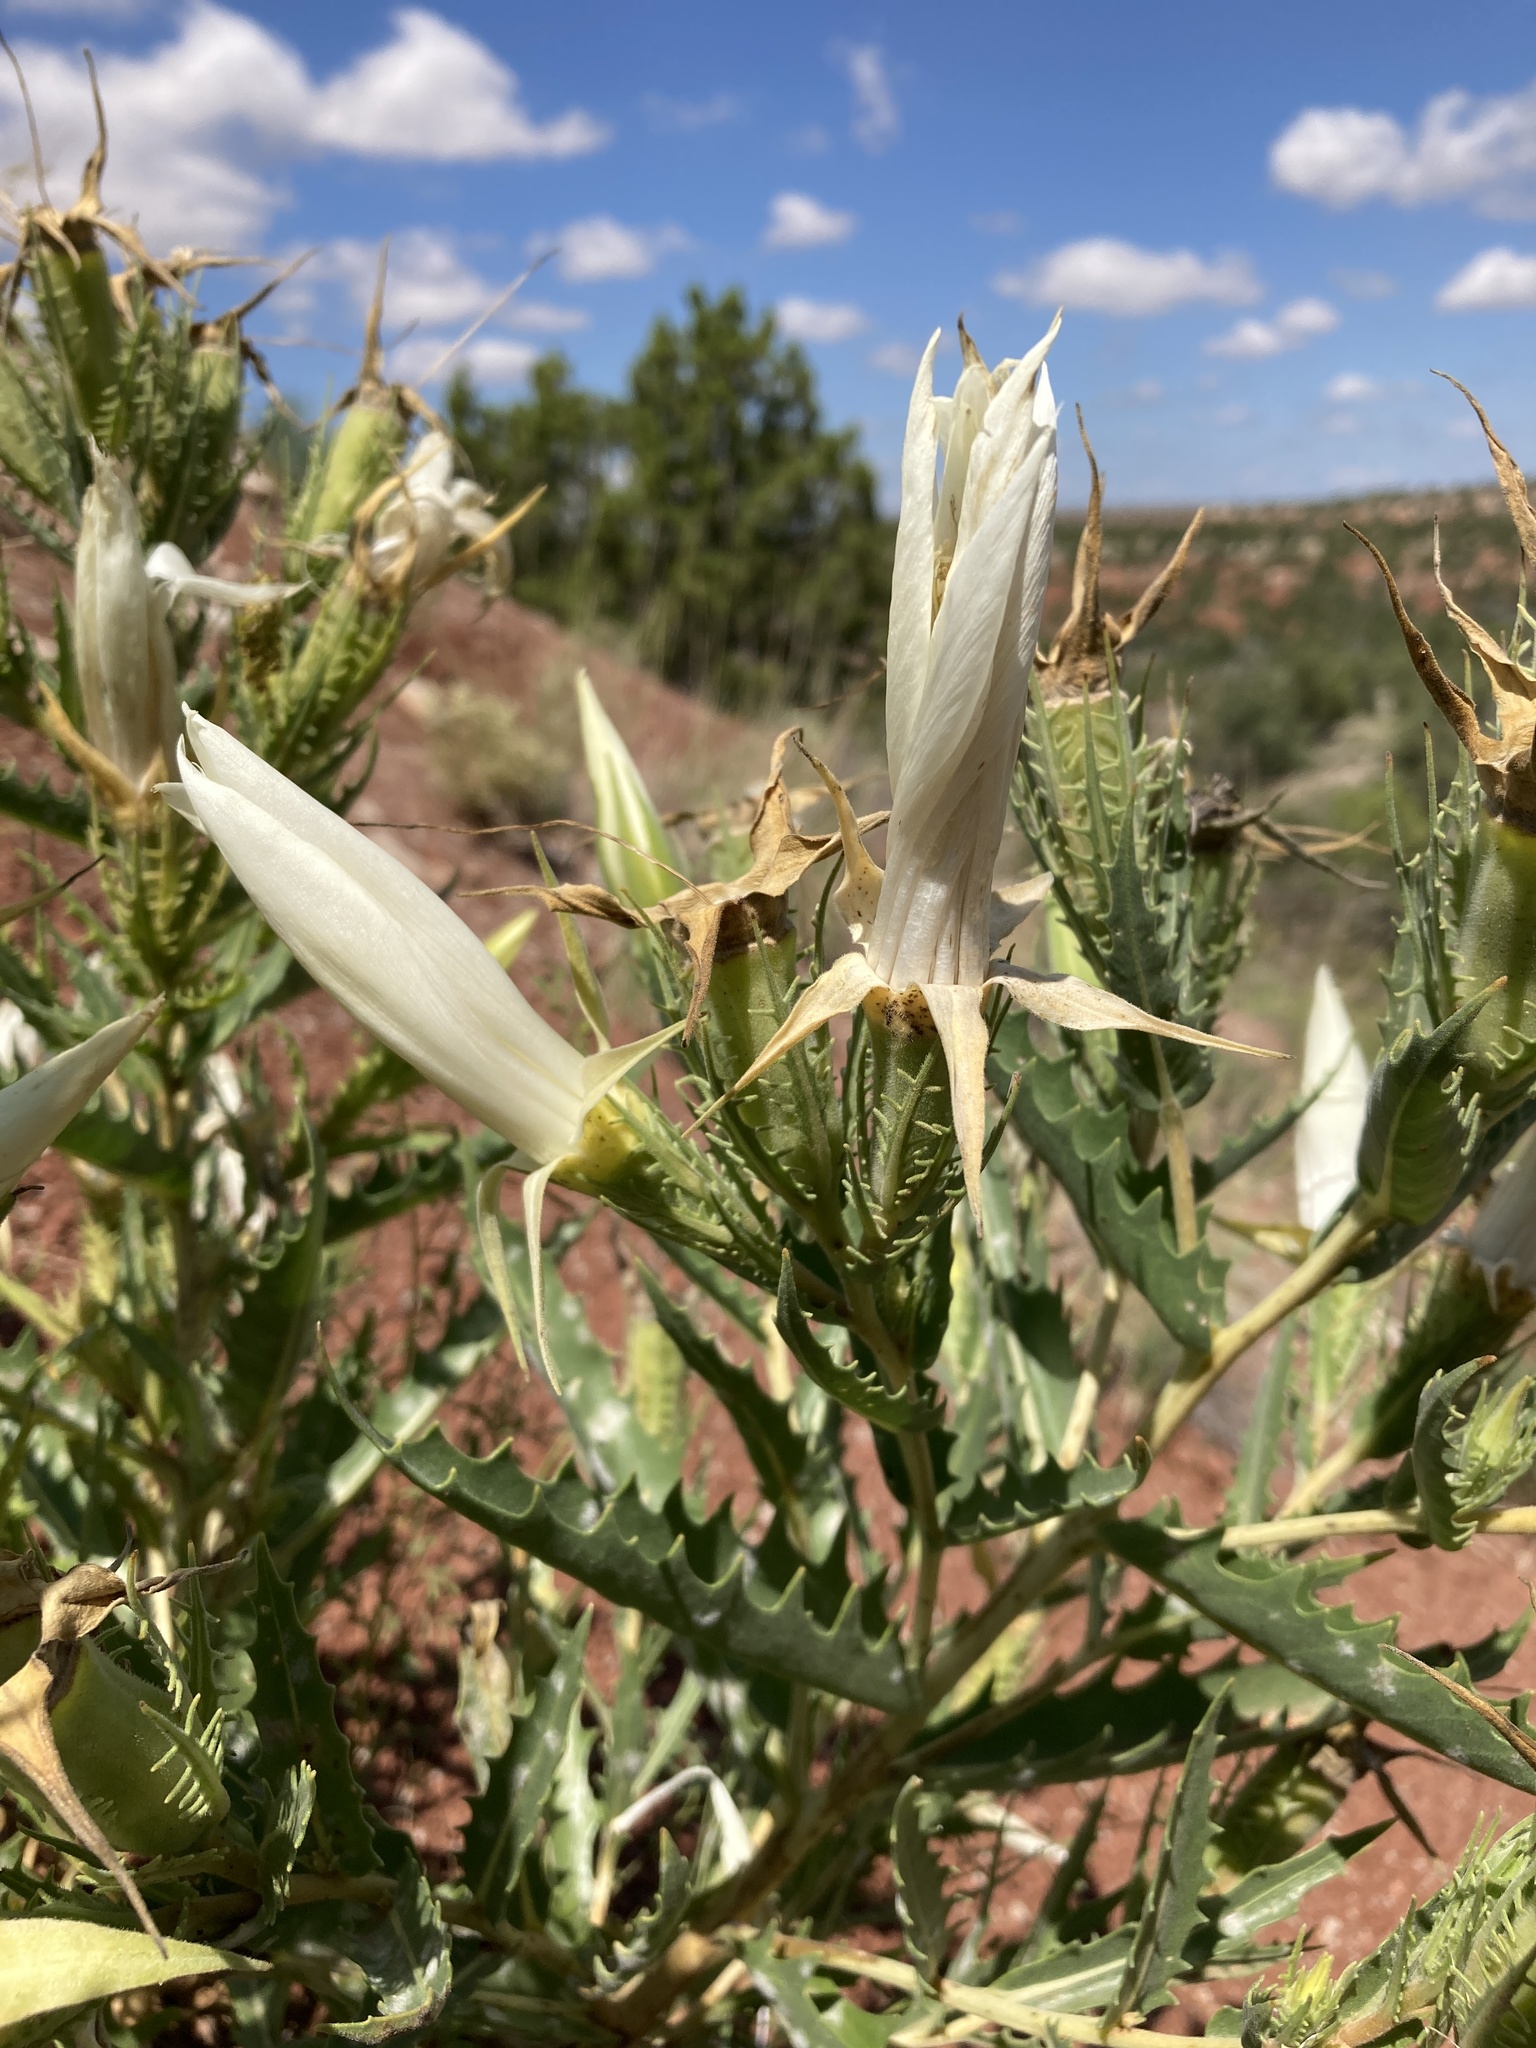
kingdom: Plantae
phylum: Tracheophyta
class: Magnoliopsida
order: Cornales
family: Loasaceae
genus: Mentzelia
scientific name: Mentzelia decapetala
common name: Gumbo-lily
